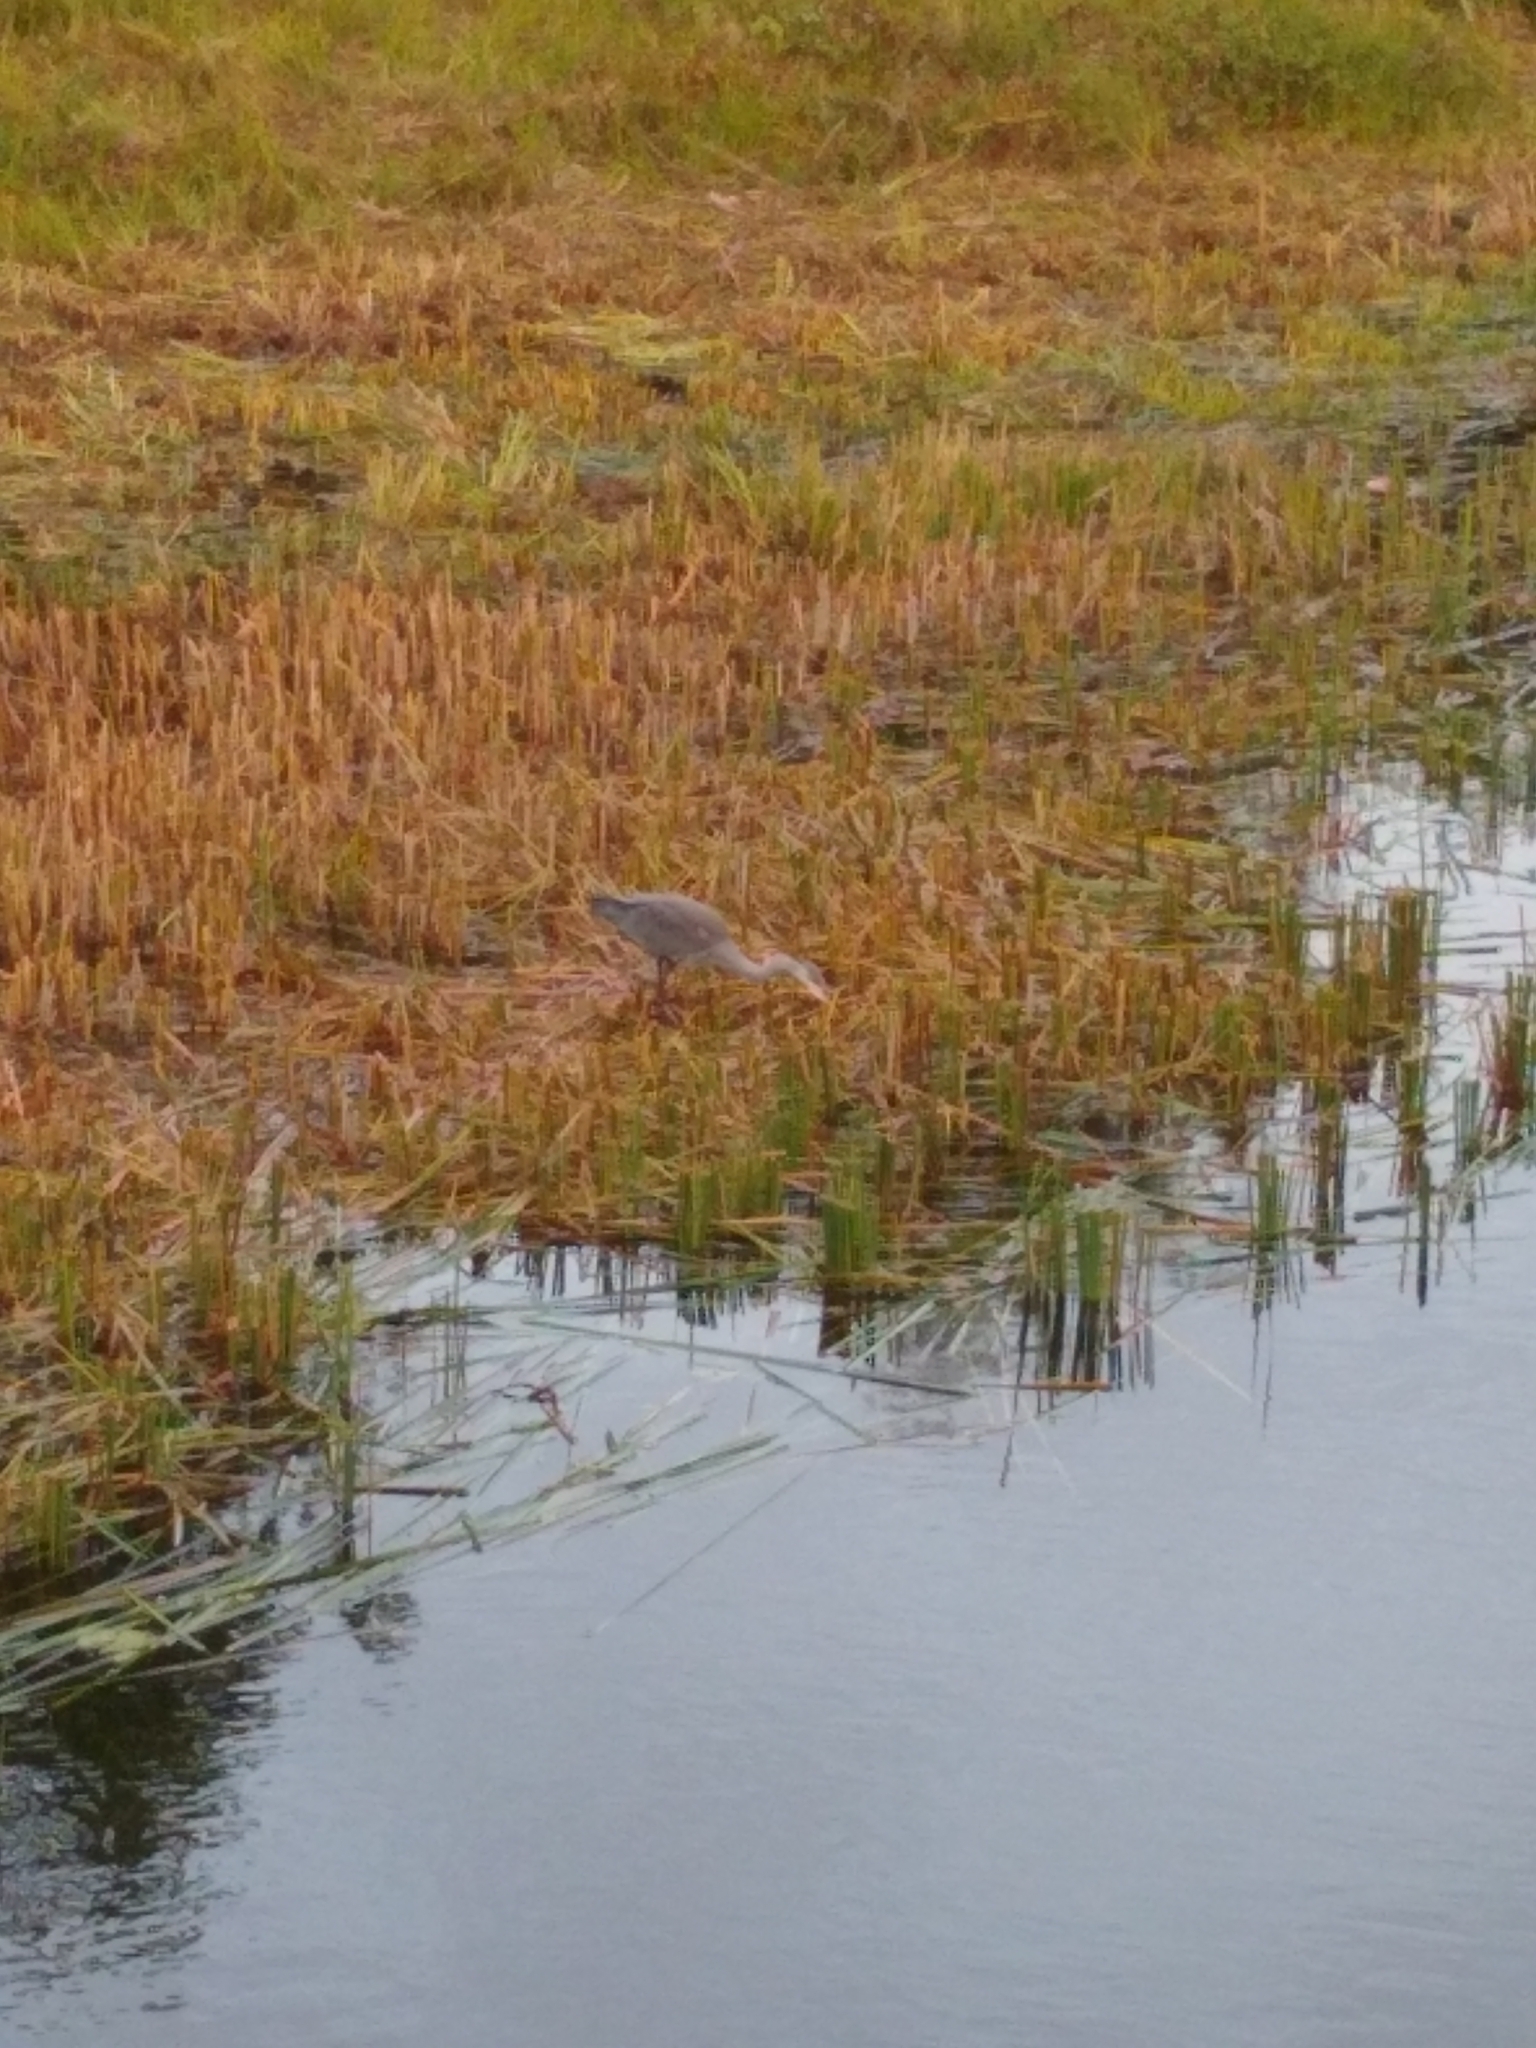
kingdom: Animalia
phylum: Chordata
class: Aves
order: Pelecaniformes
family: Ardeidae
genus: Ardea
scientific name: Ardea cinerea
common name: Grey heron
